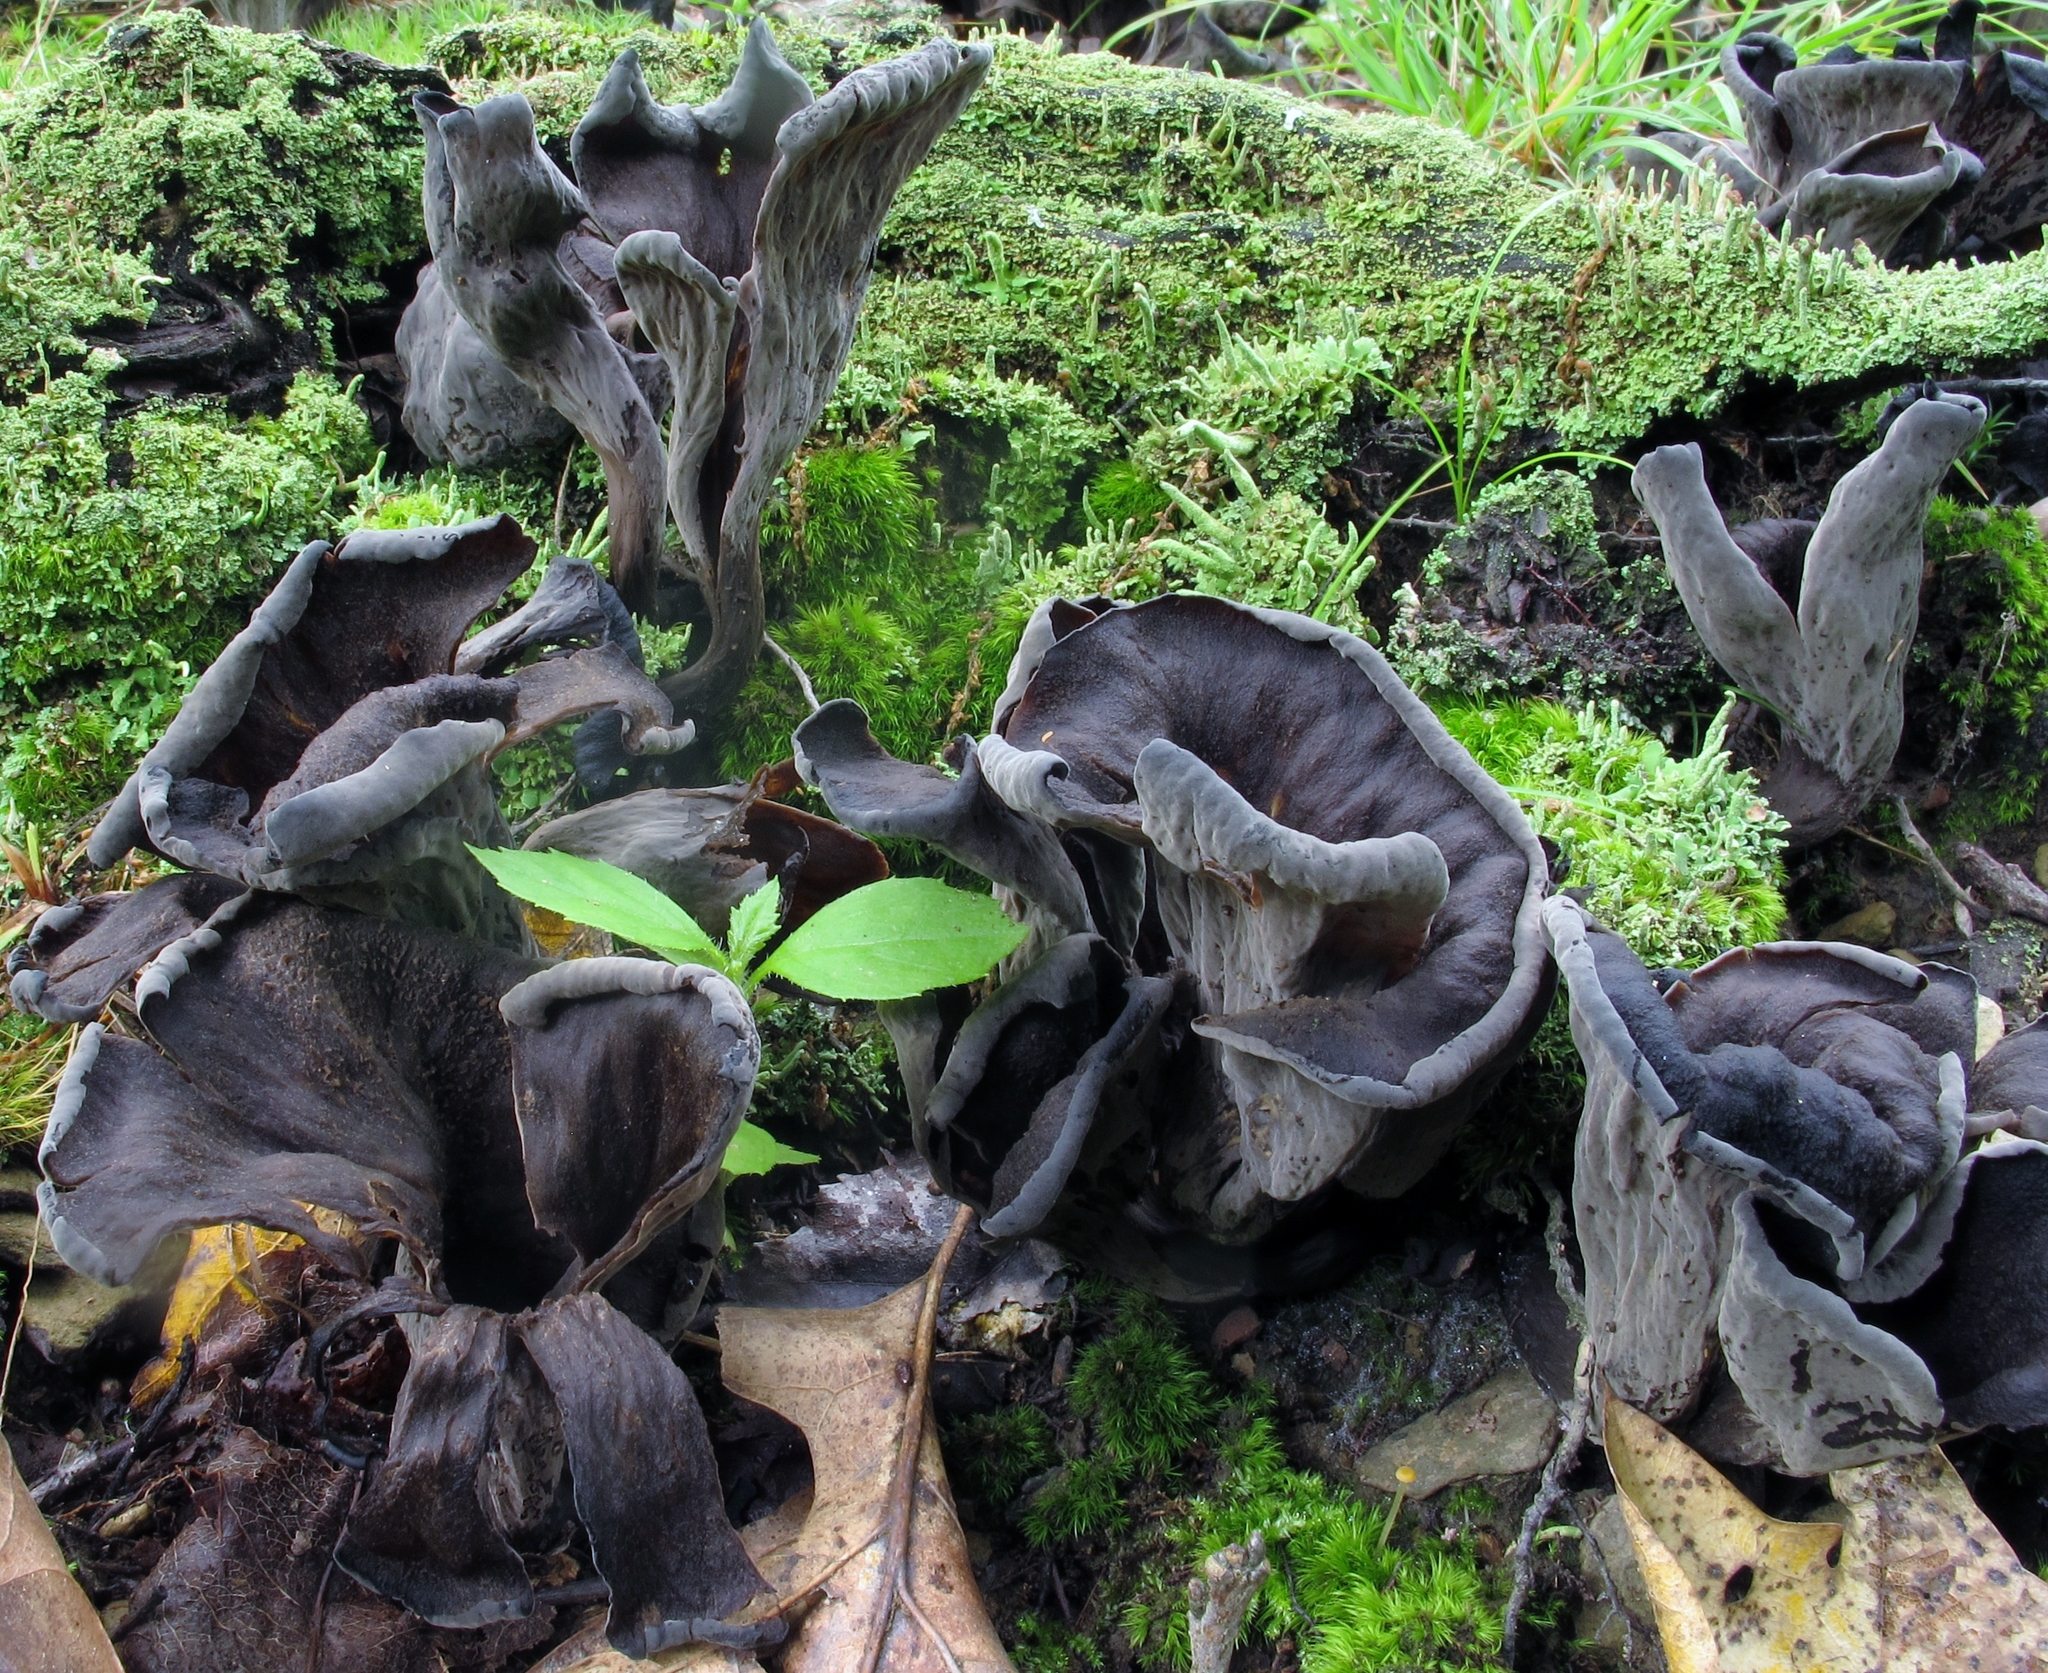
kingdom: Fungi
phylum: Basidiomycota
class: Agaricomycetes
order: Cantharellales
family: Hydnaceae
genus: Craterellus
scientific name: Craterellus cornucopioides
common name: Horn of plenty
